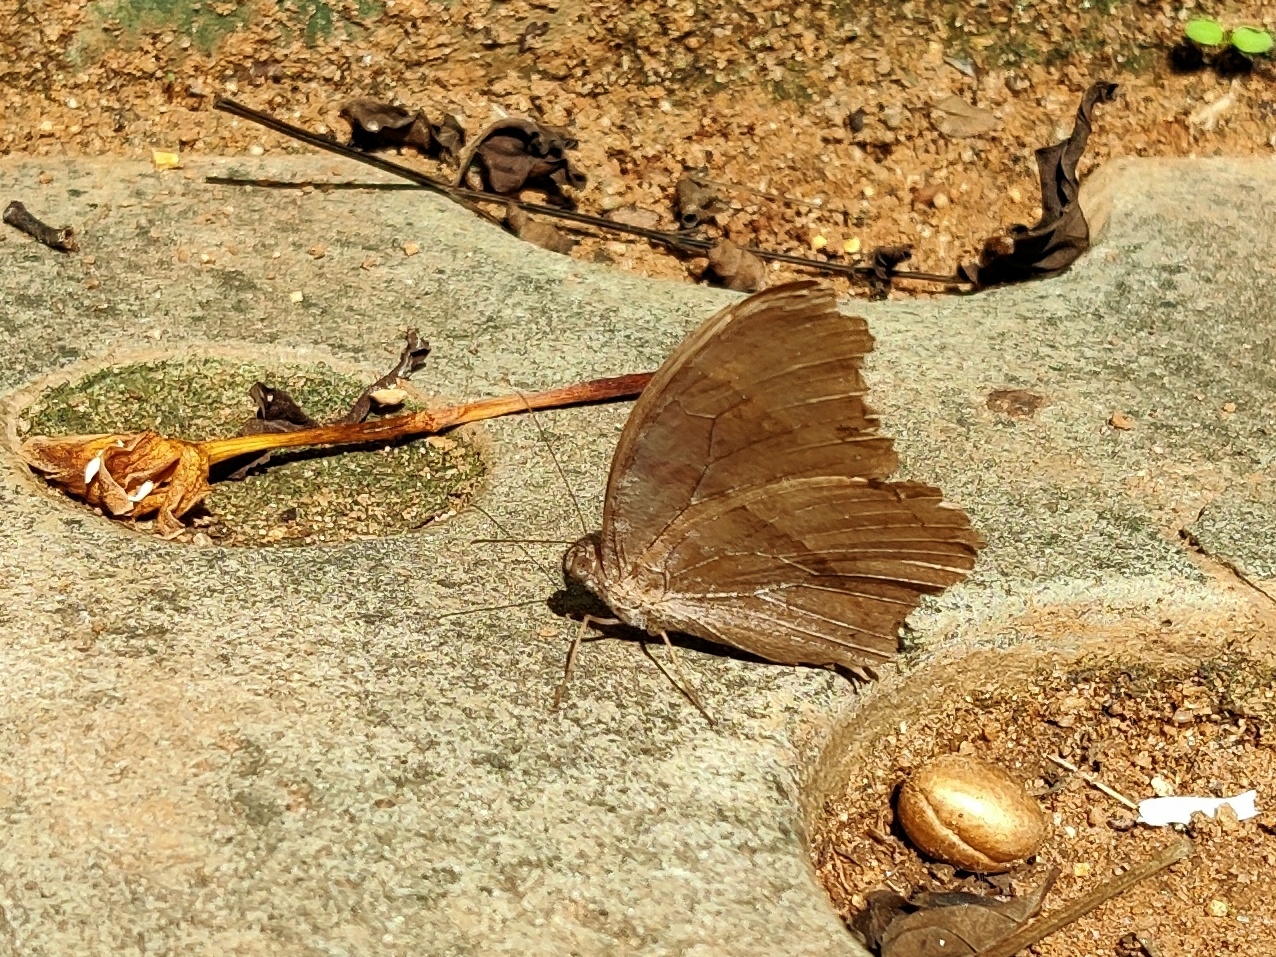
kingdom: Animalia
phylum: Arthropoda
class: Insecta
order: Lepidoptera
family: Nymphalidae
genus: Melanitis
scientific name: Melanitis leda
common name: Twilight brown
